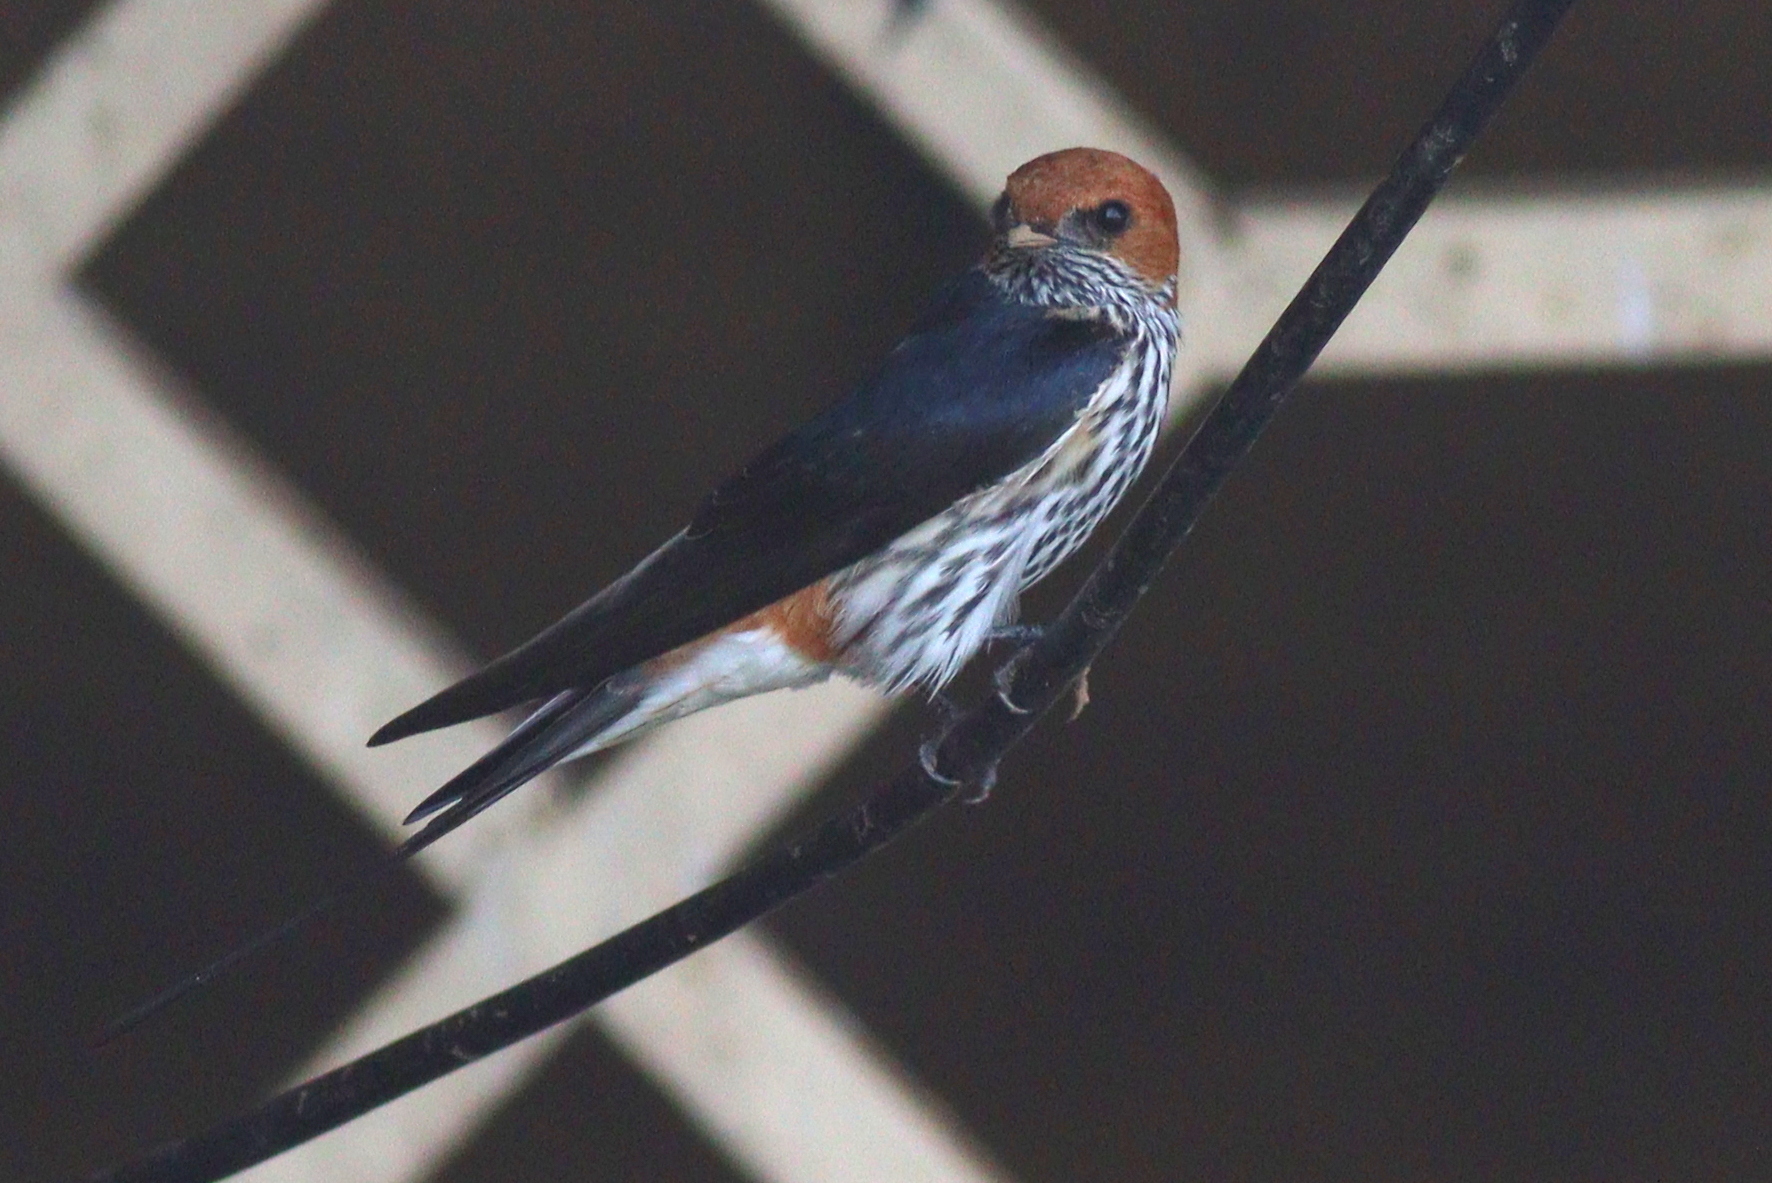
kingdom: Animalia
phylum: Chordata
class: Aves
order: Passeriformes
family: Hirundinidae
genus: Cecropis
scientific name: Cecropis abyssinica
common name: Lesser striped-swallow
